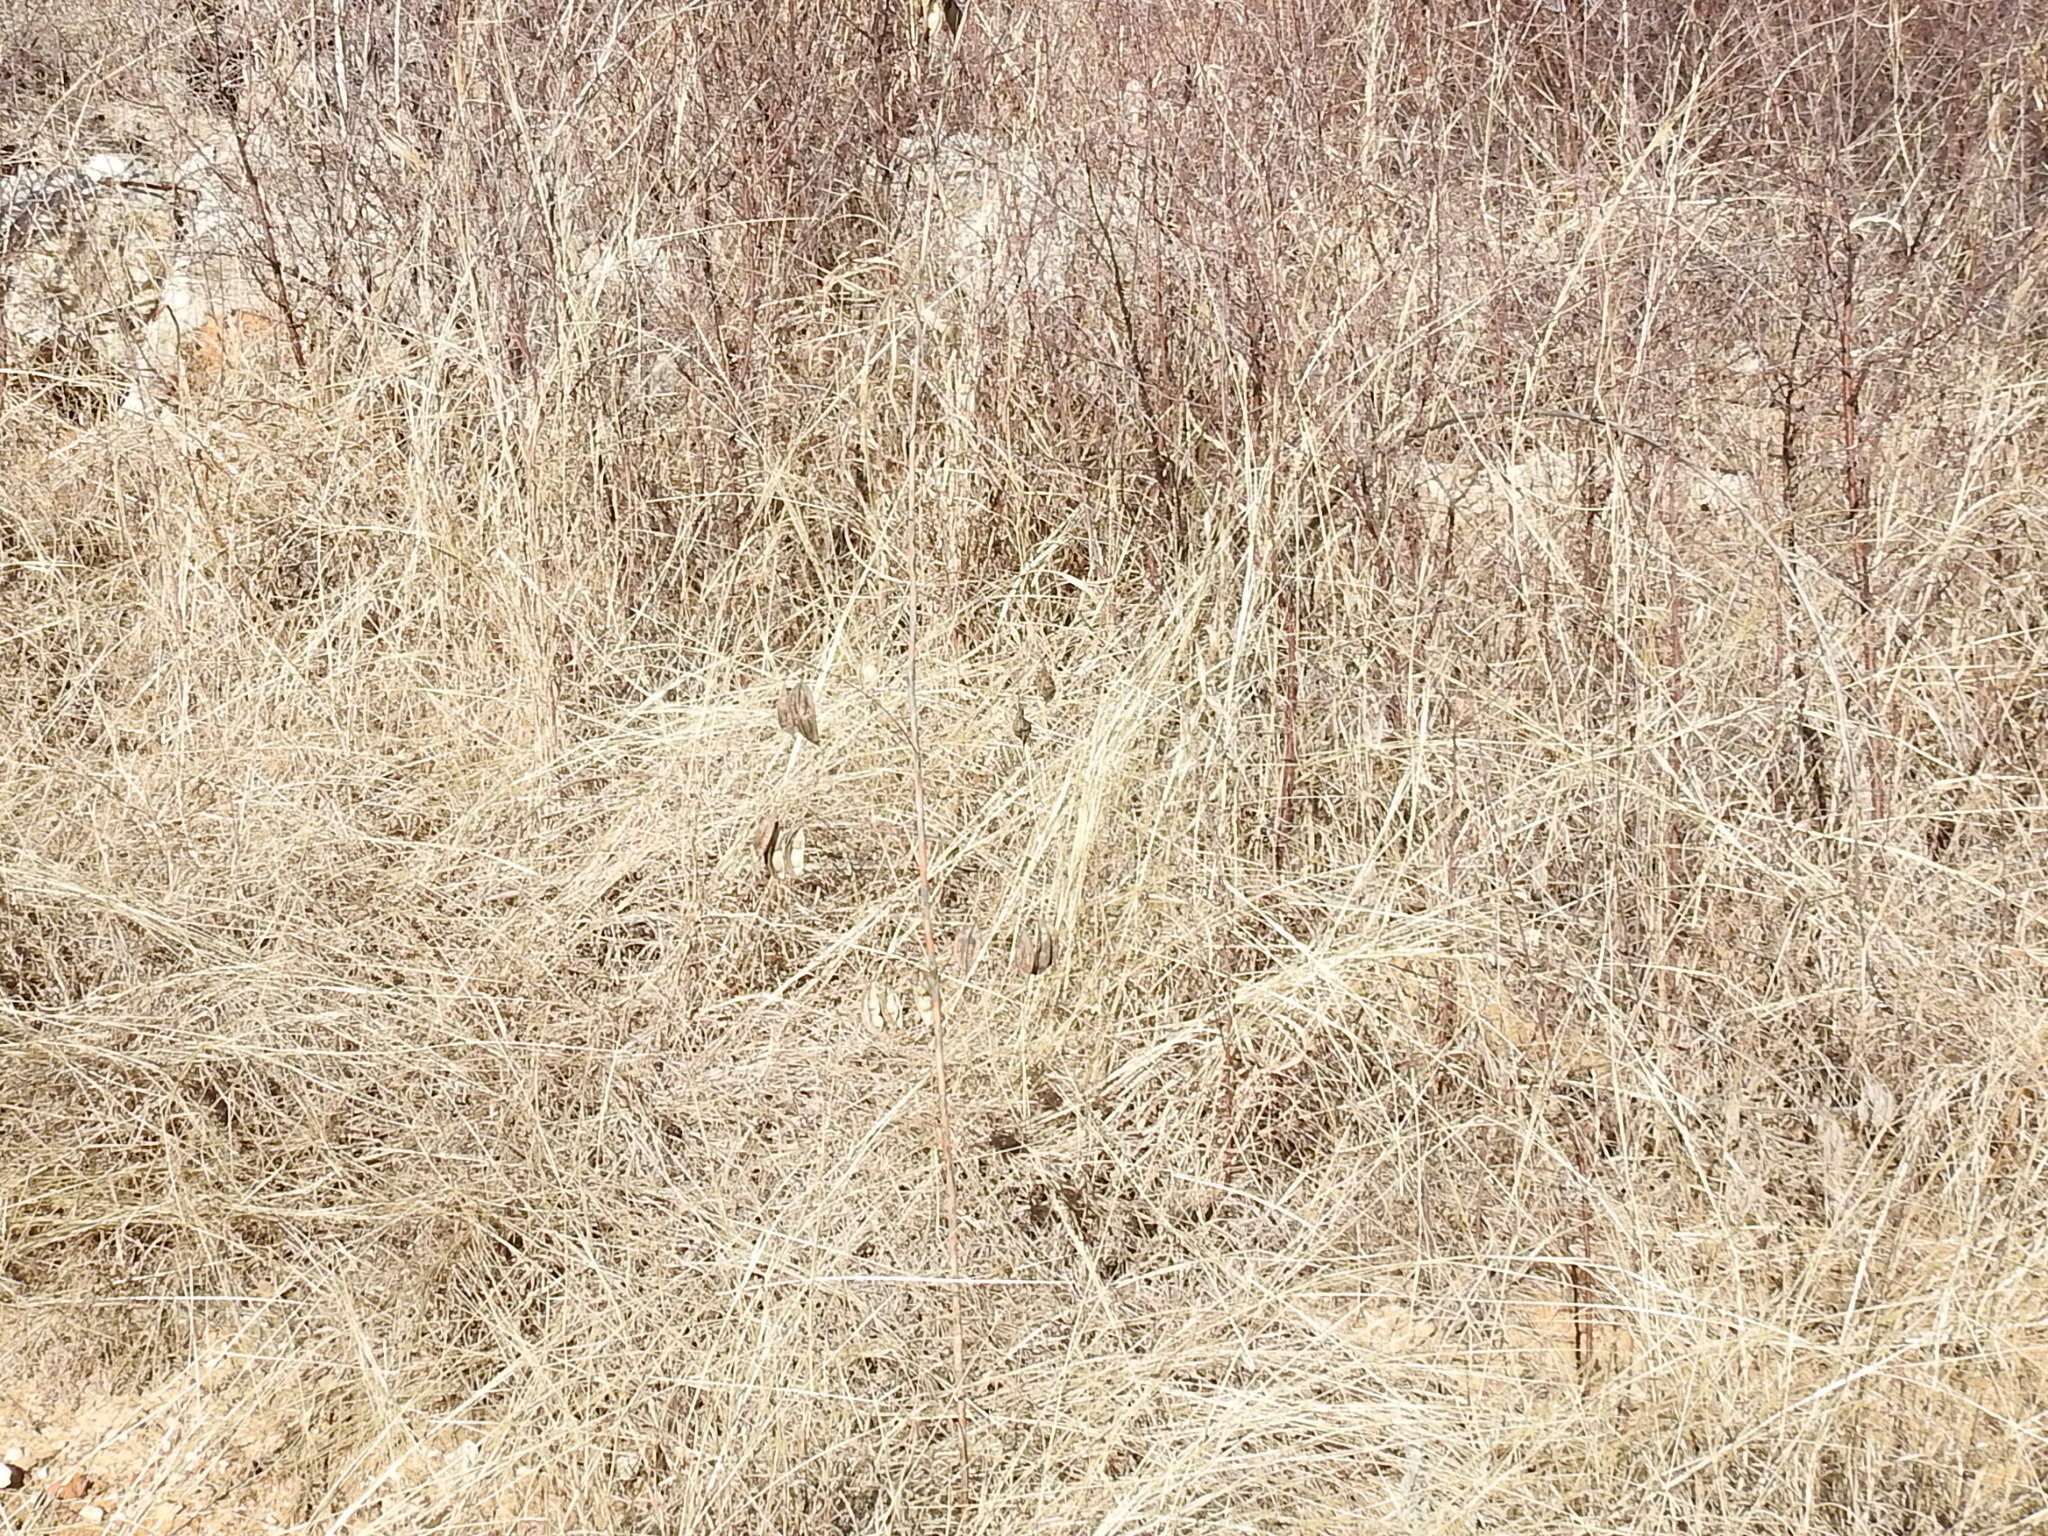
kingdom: Plantae
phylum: Tracheophyta
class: Magnoliopsida
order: Fabales
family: Fabaceae
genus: Sesbania
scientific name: Sesbania vesicaria
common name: Bagpod
